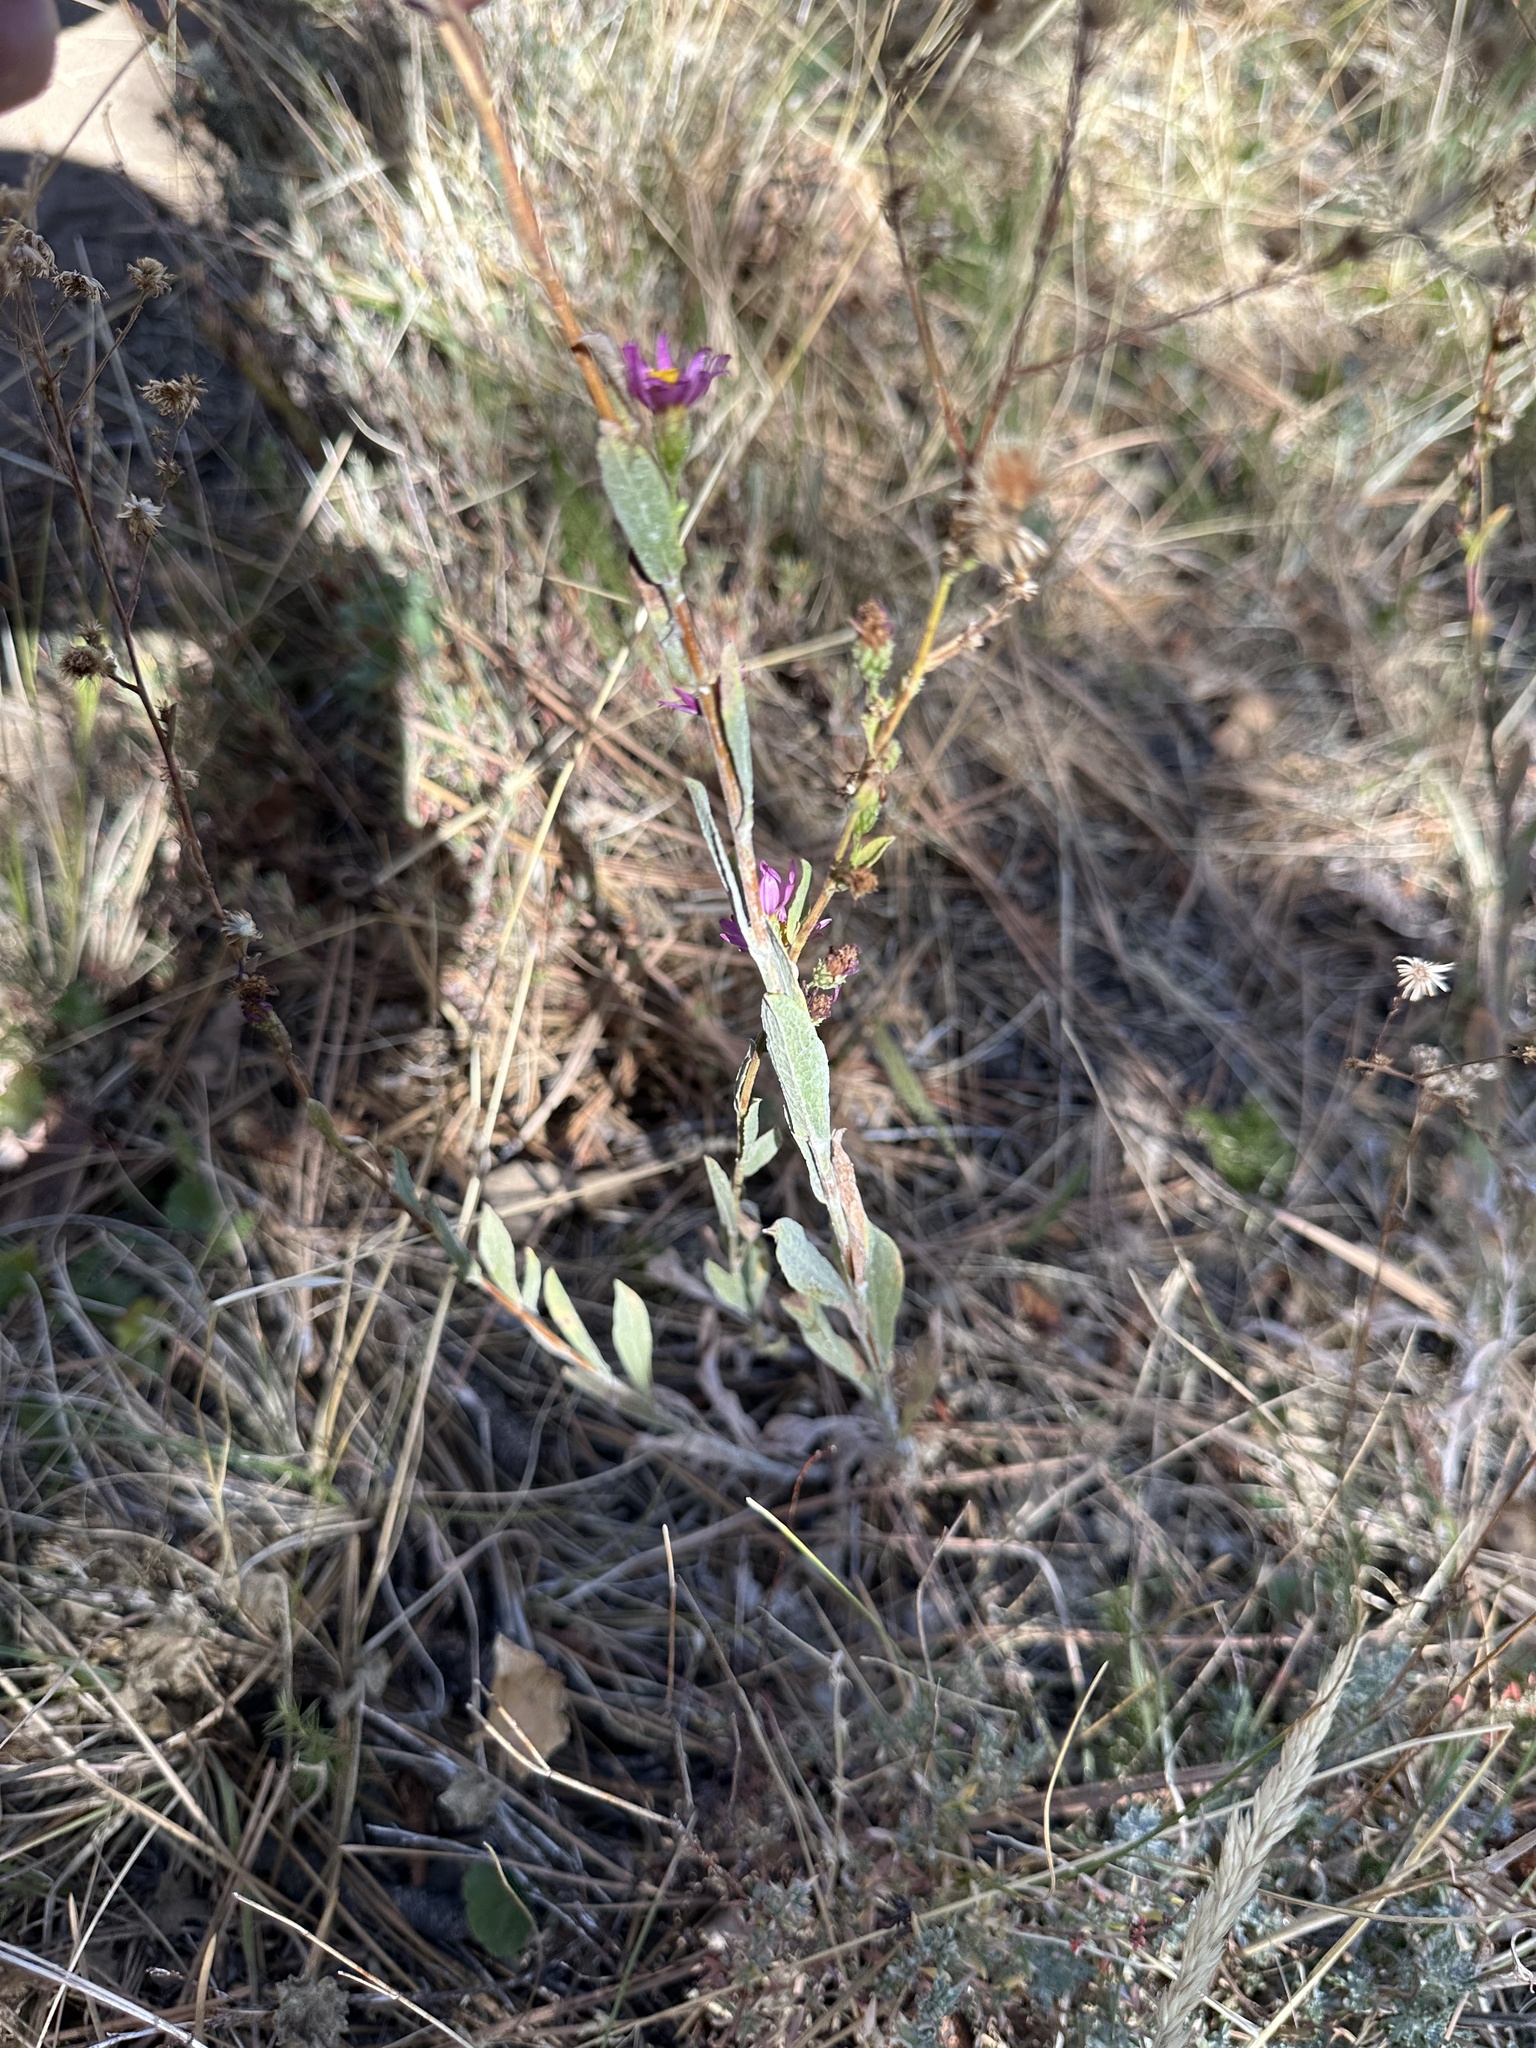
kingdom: Plantae
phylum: Tracheophyta
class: Magnoliopsida
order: Asterales
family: Asteraceae
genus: Corethrogyne
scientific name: Corethrogyne filaginifolia
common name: Sand-aster
